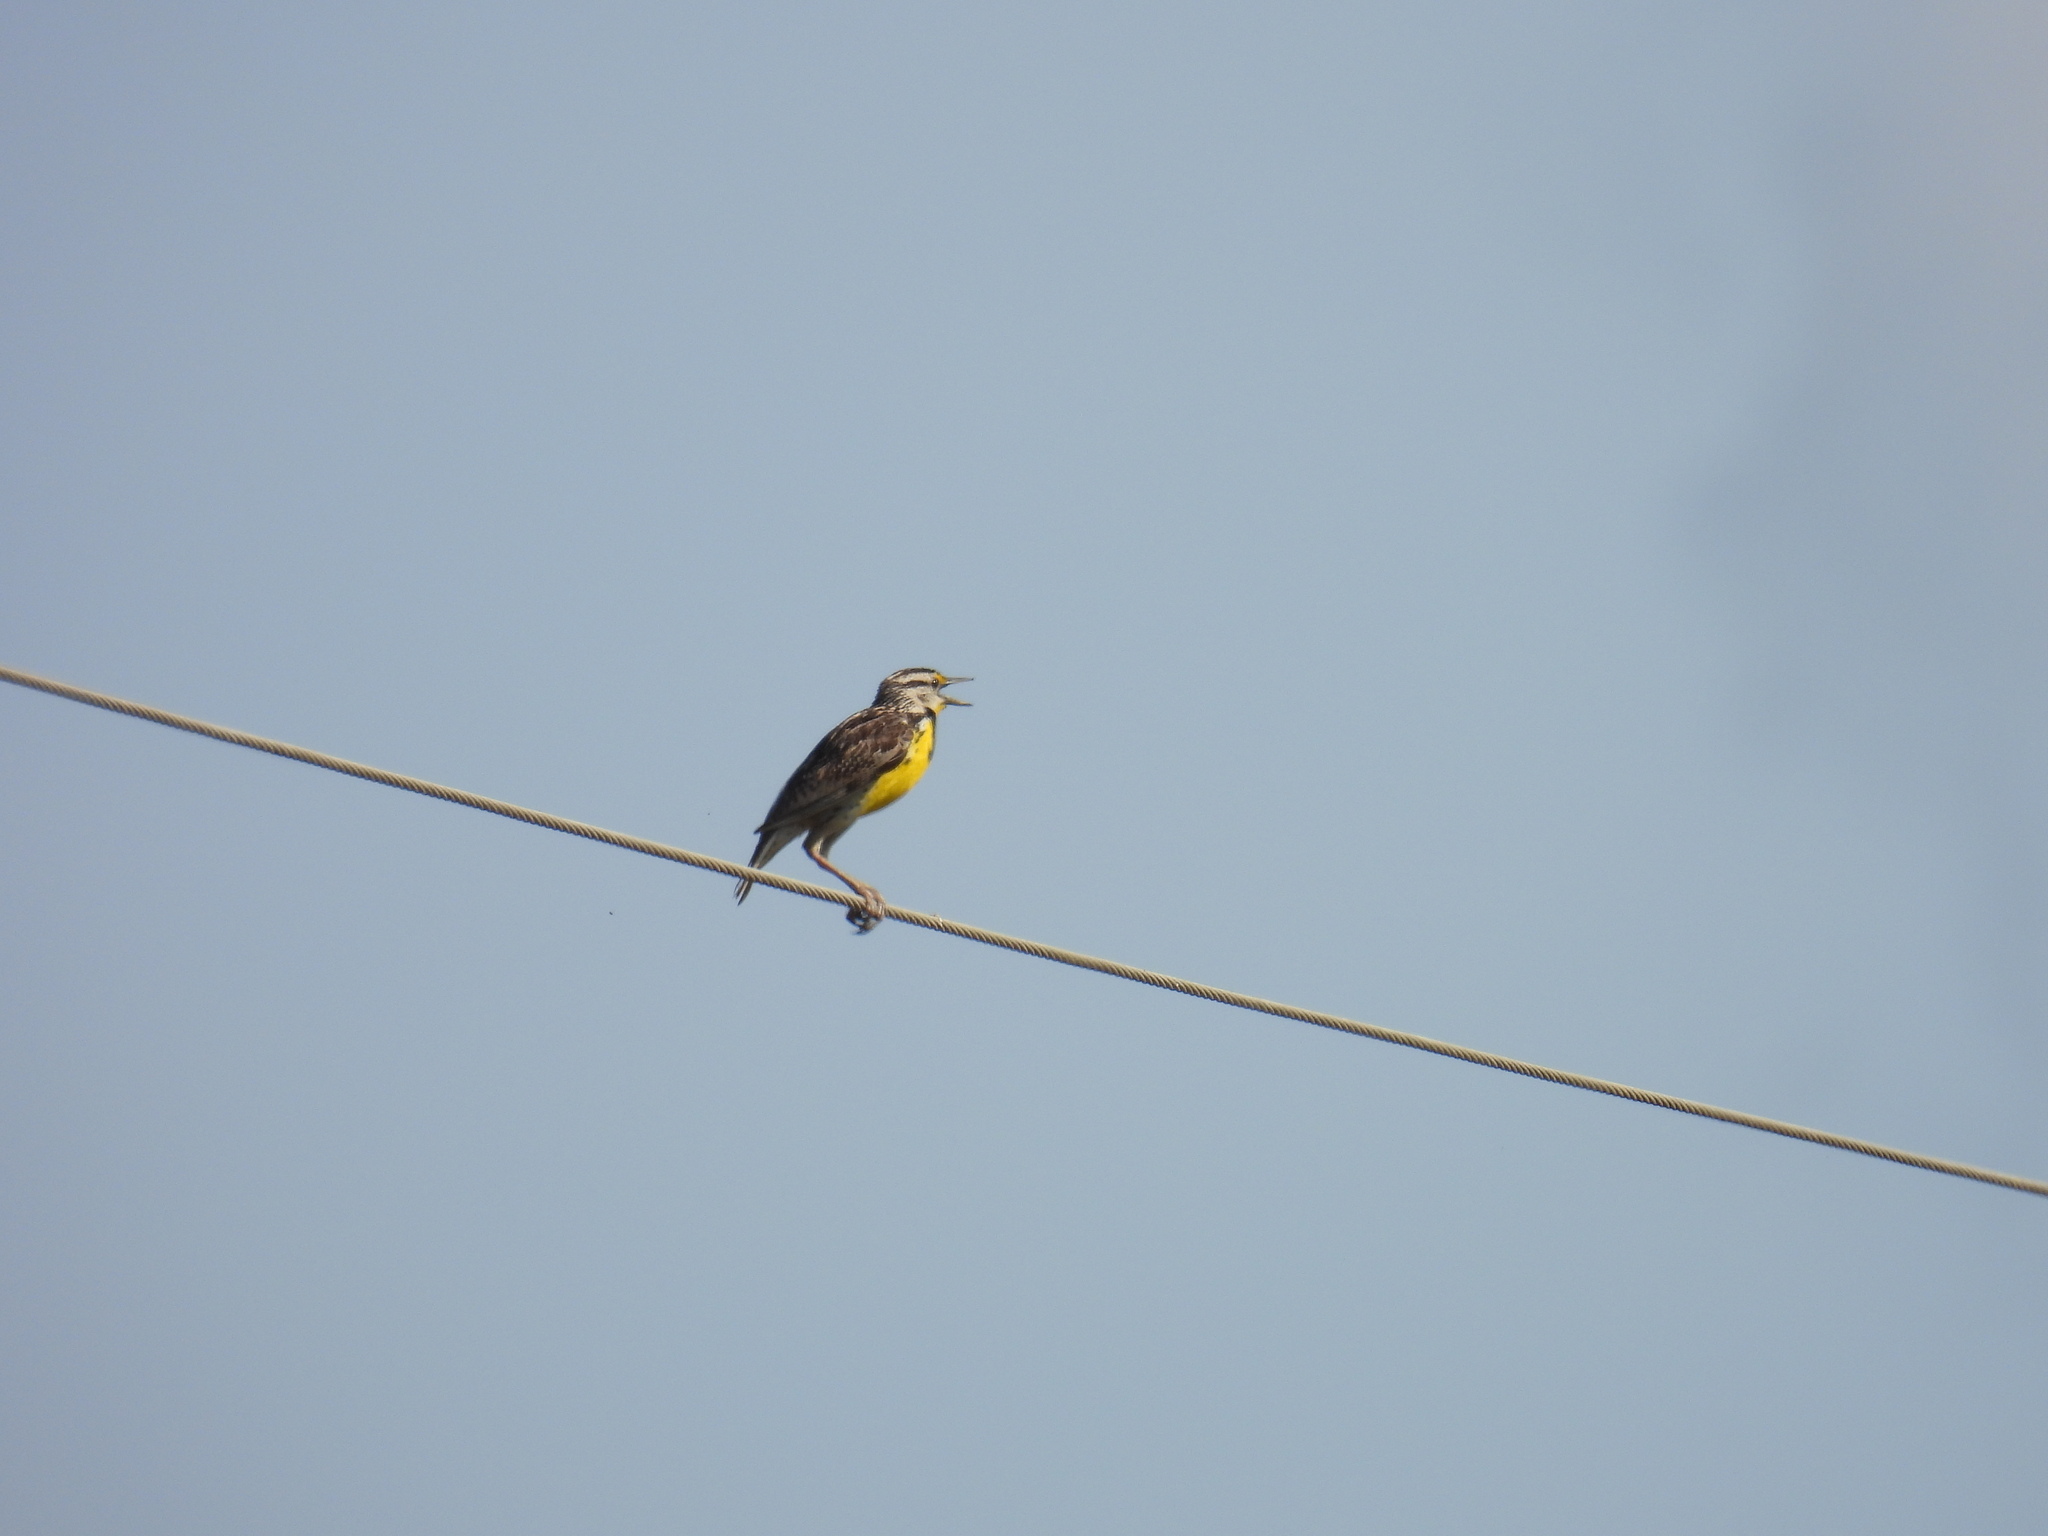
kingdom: Animalia
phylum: Chordata
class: Aves
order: Passeriformes
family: Icteridae
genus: Sturnella
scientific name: Sturnella magna
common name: Eastern meadowlark
